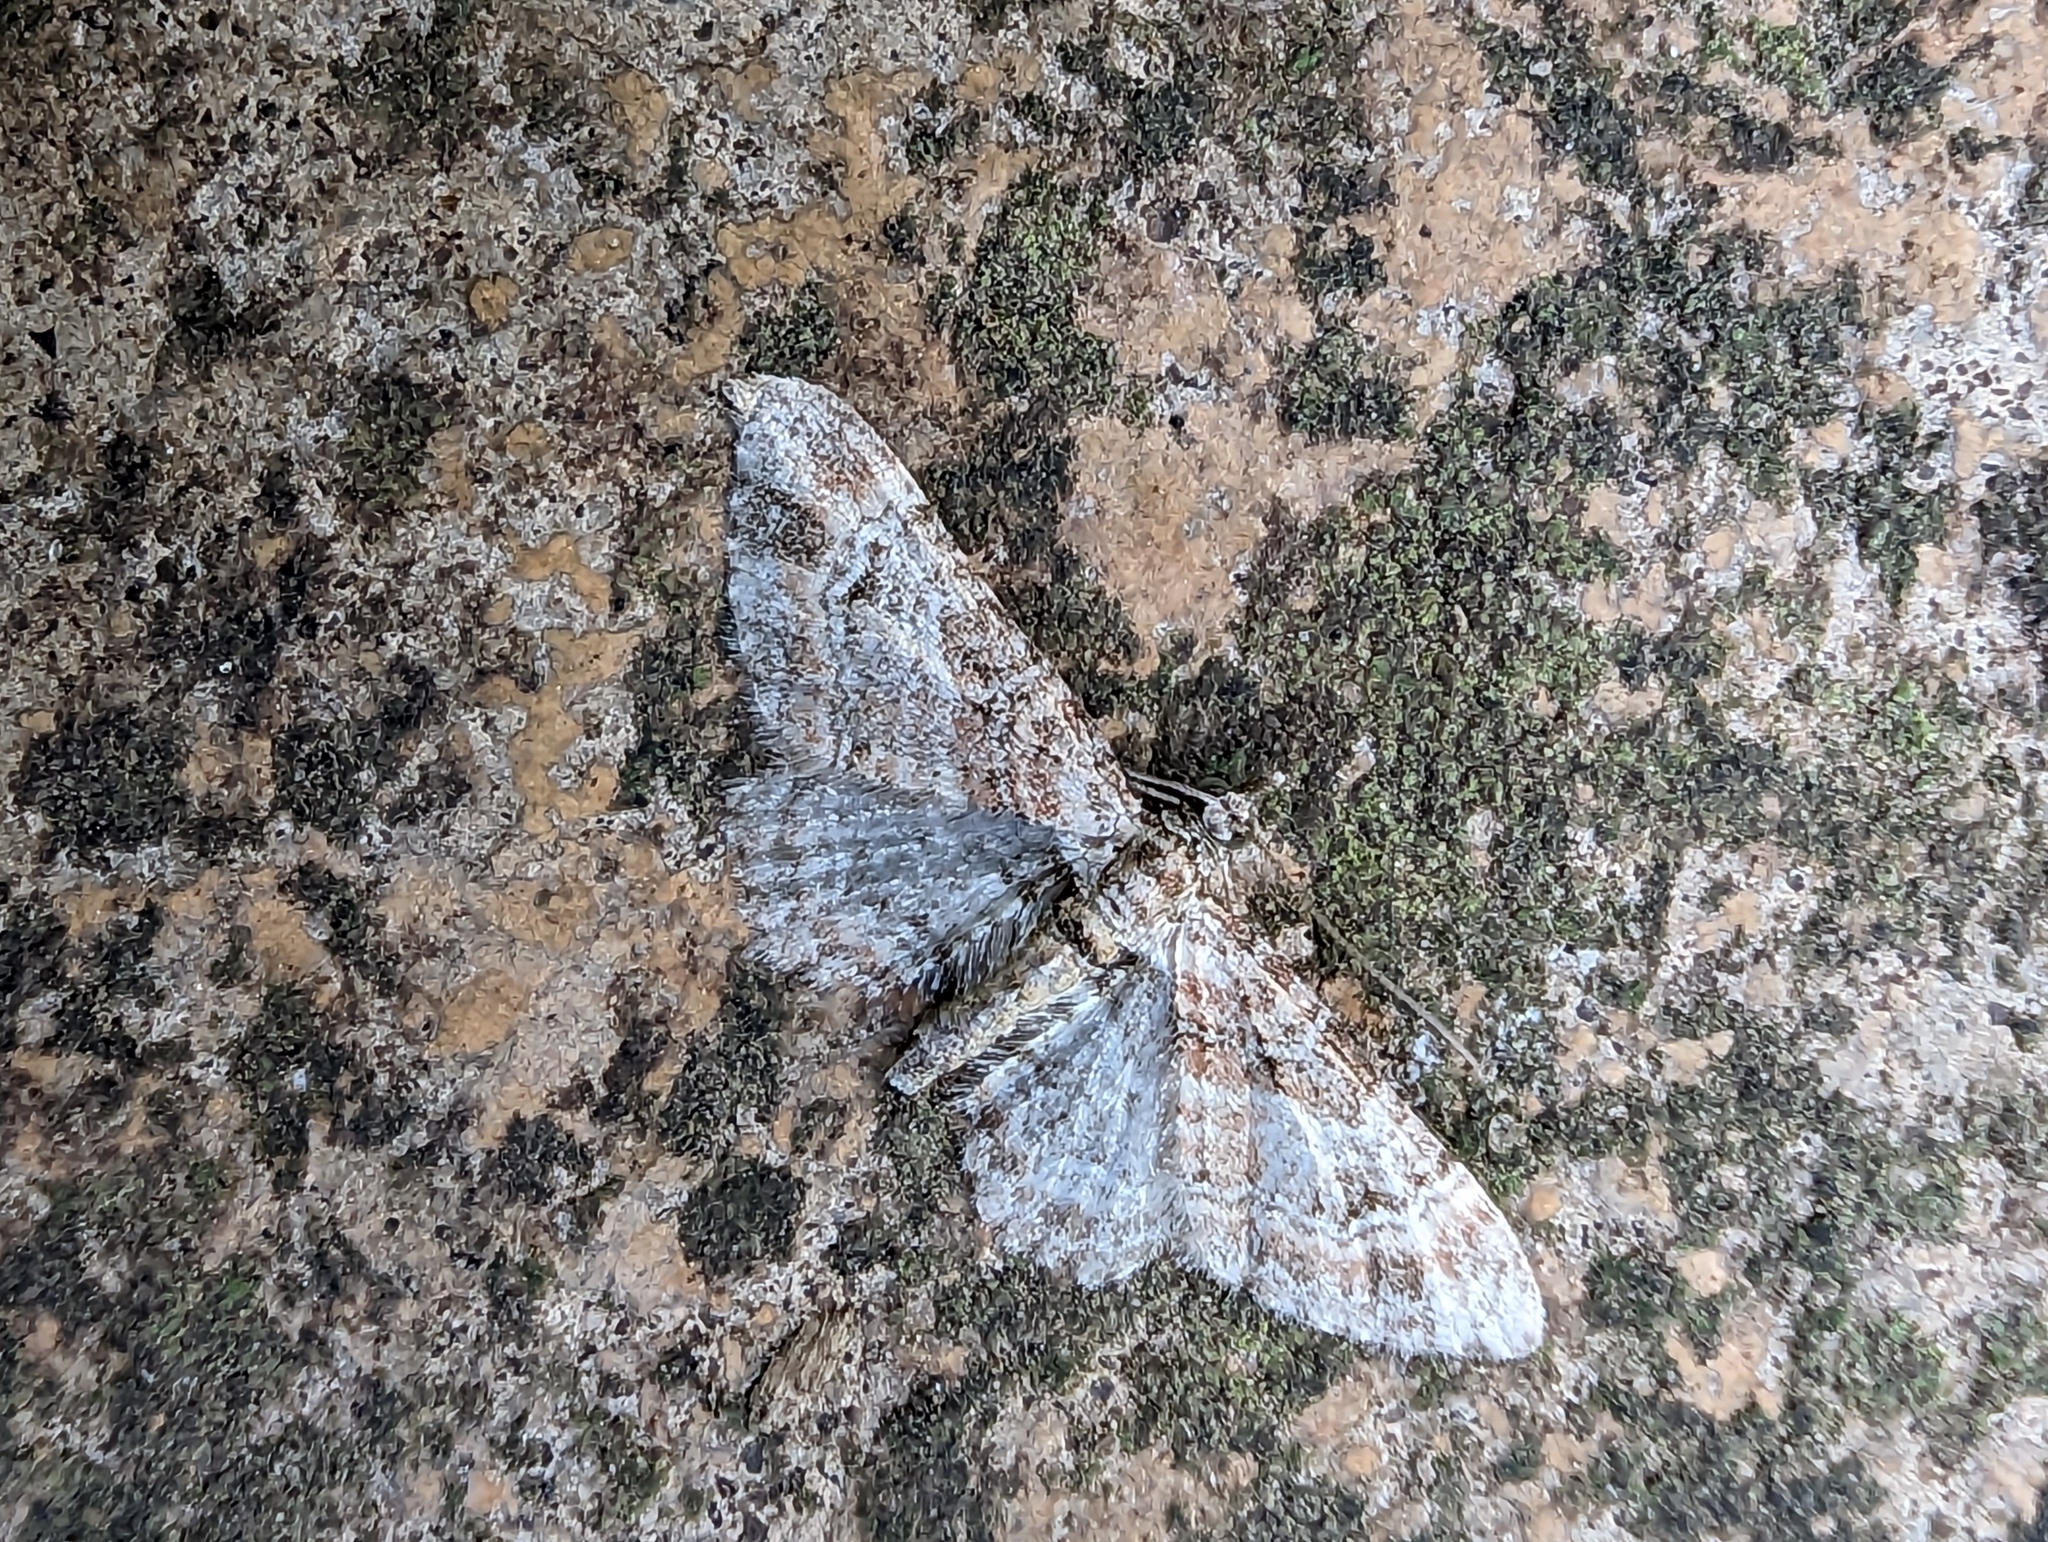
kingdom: Animalia
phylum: Arthropoda
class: Insecta
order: Lepidoptera
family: Geometridae
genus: Gymnoscelis
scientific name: Gymnoscelis rufifasciata
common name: Double-striped pug
